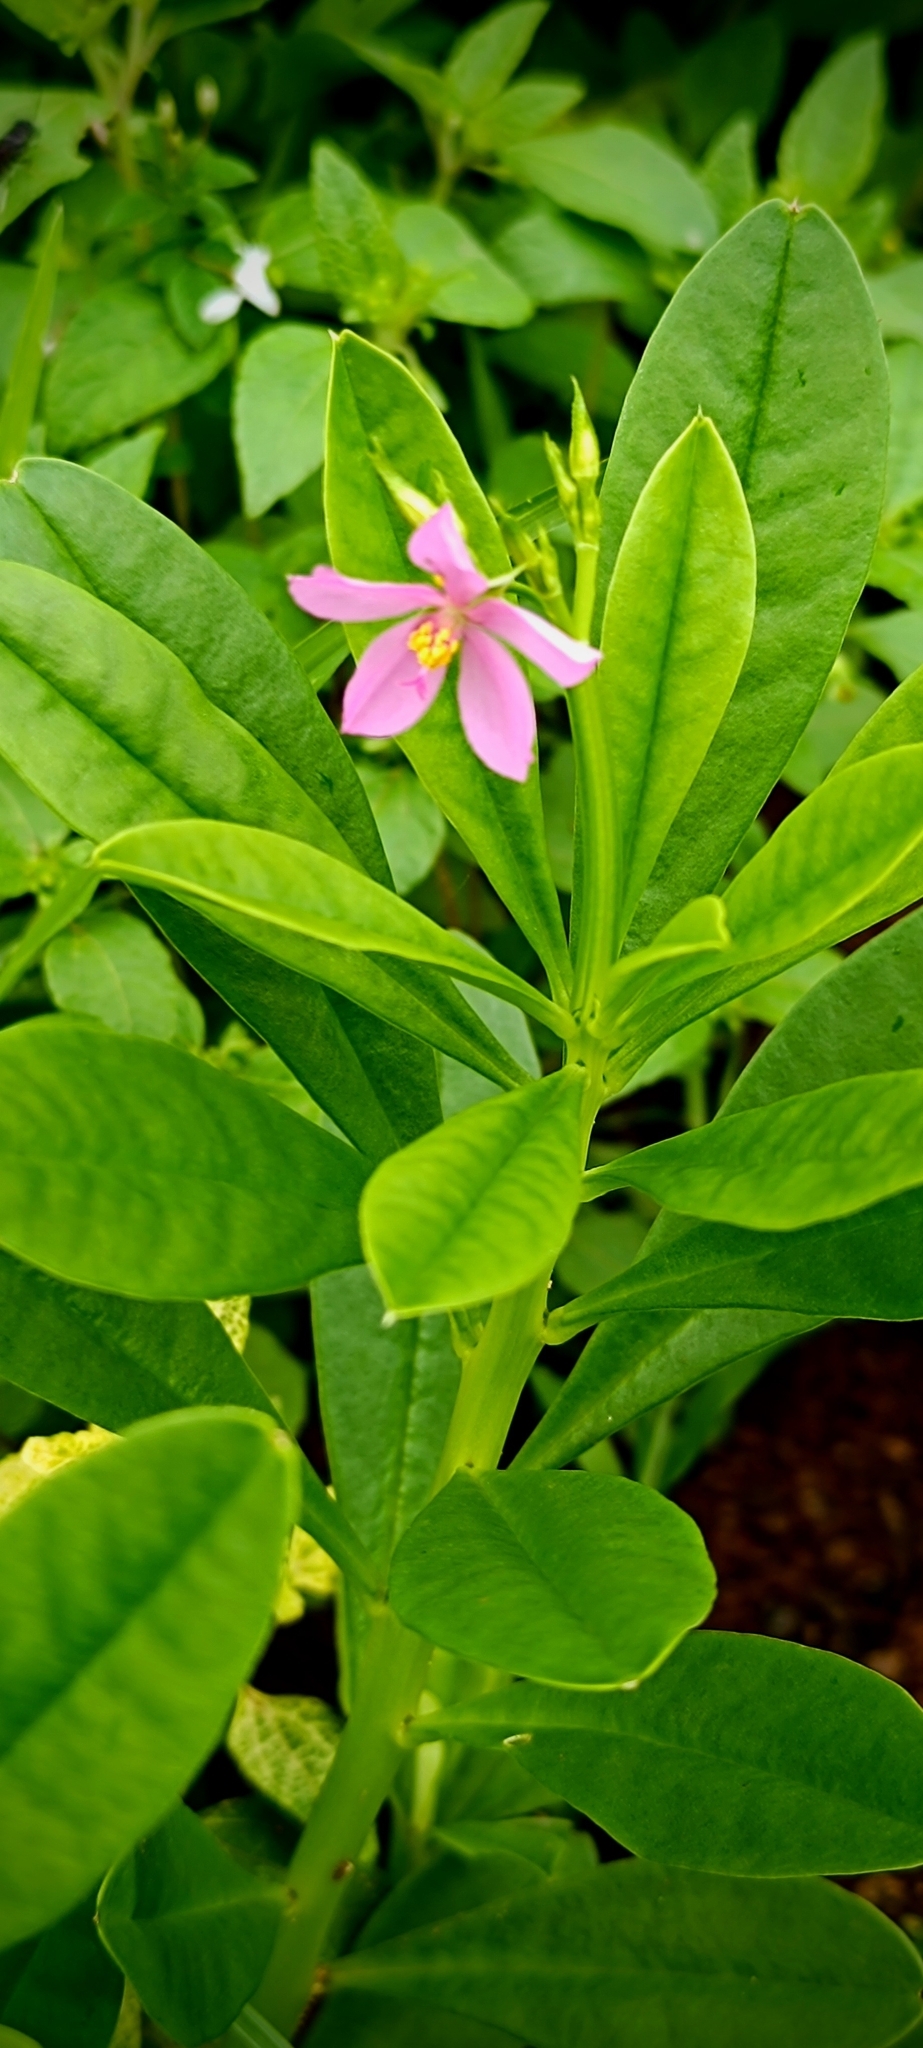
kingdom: Plantae
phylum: Tracheophyta
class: Magnoliopsida
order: Caryophyllales
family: Talinaceae
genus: Talinum
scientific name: Talinum fruticosum
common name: Verdolaga-francesa
